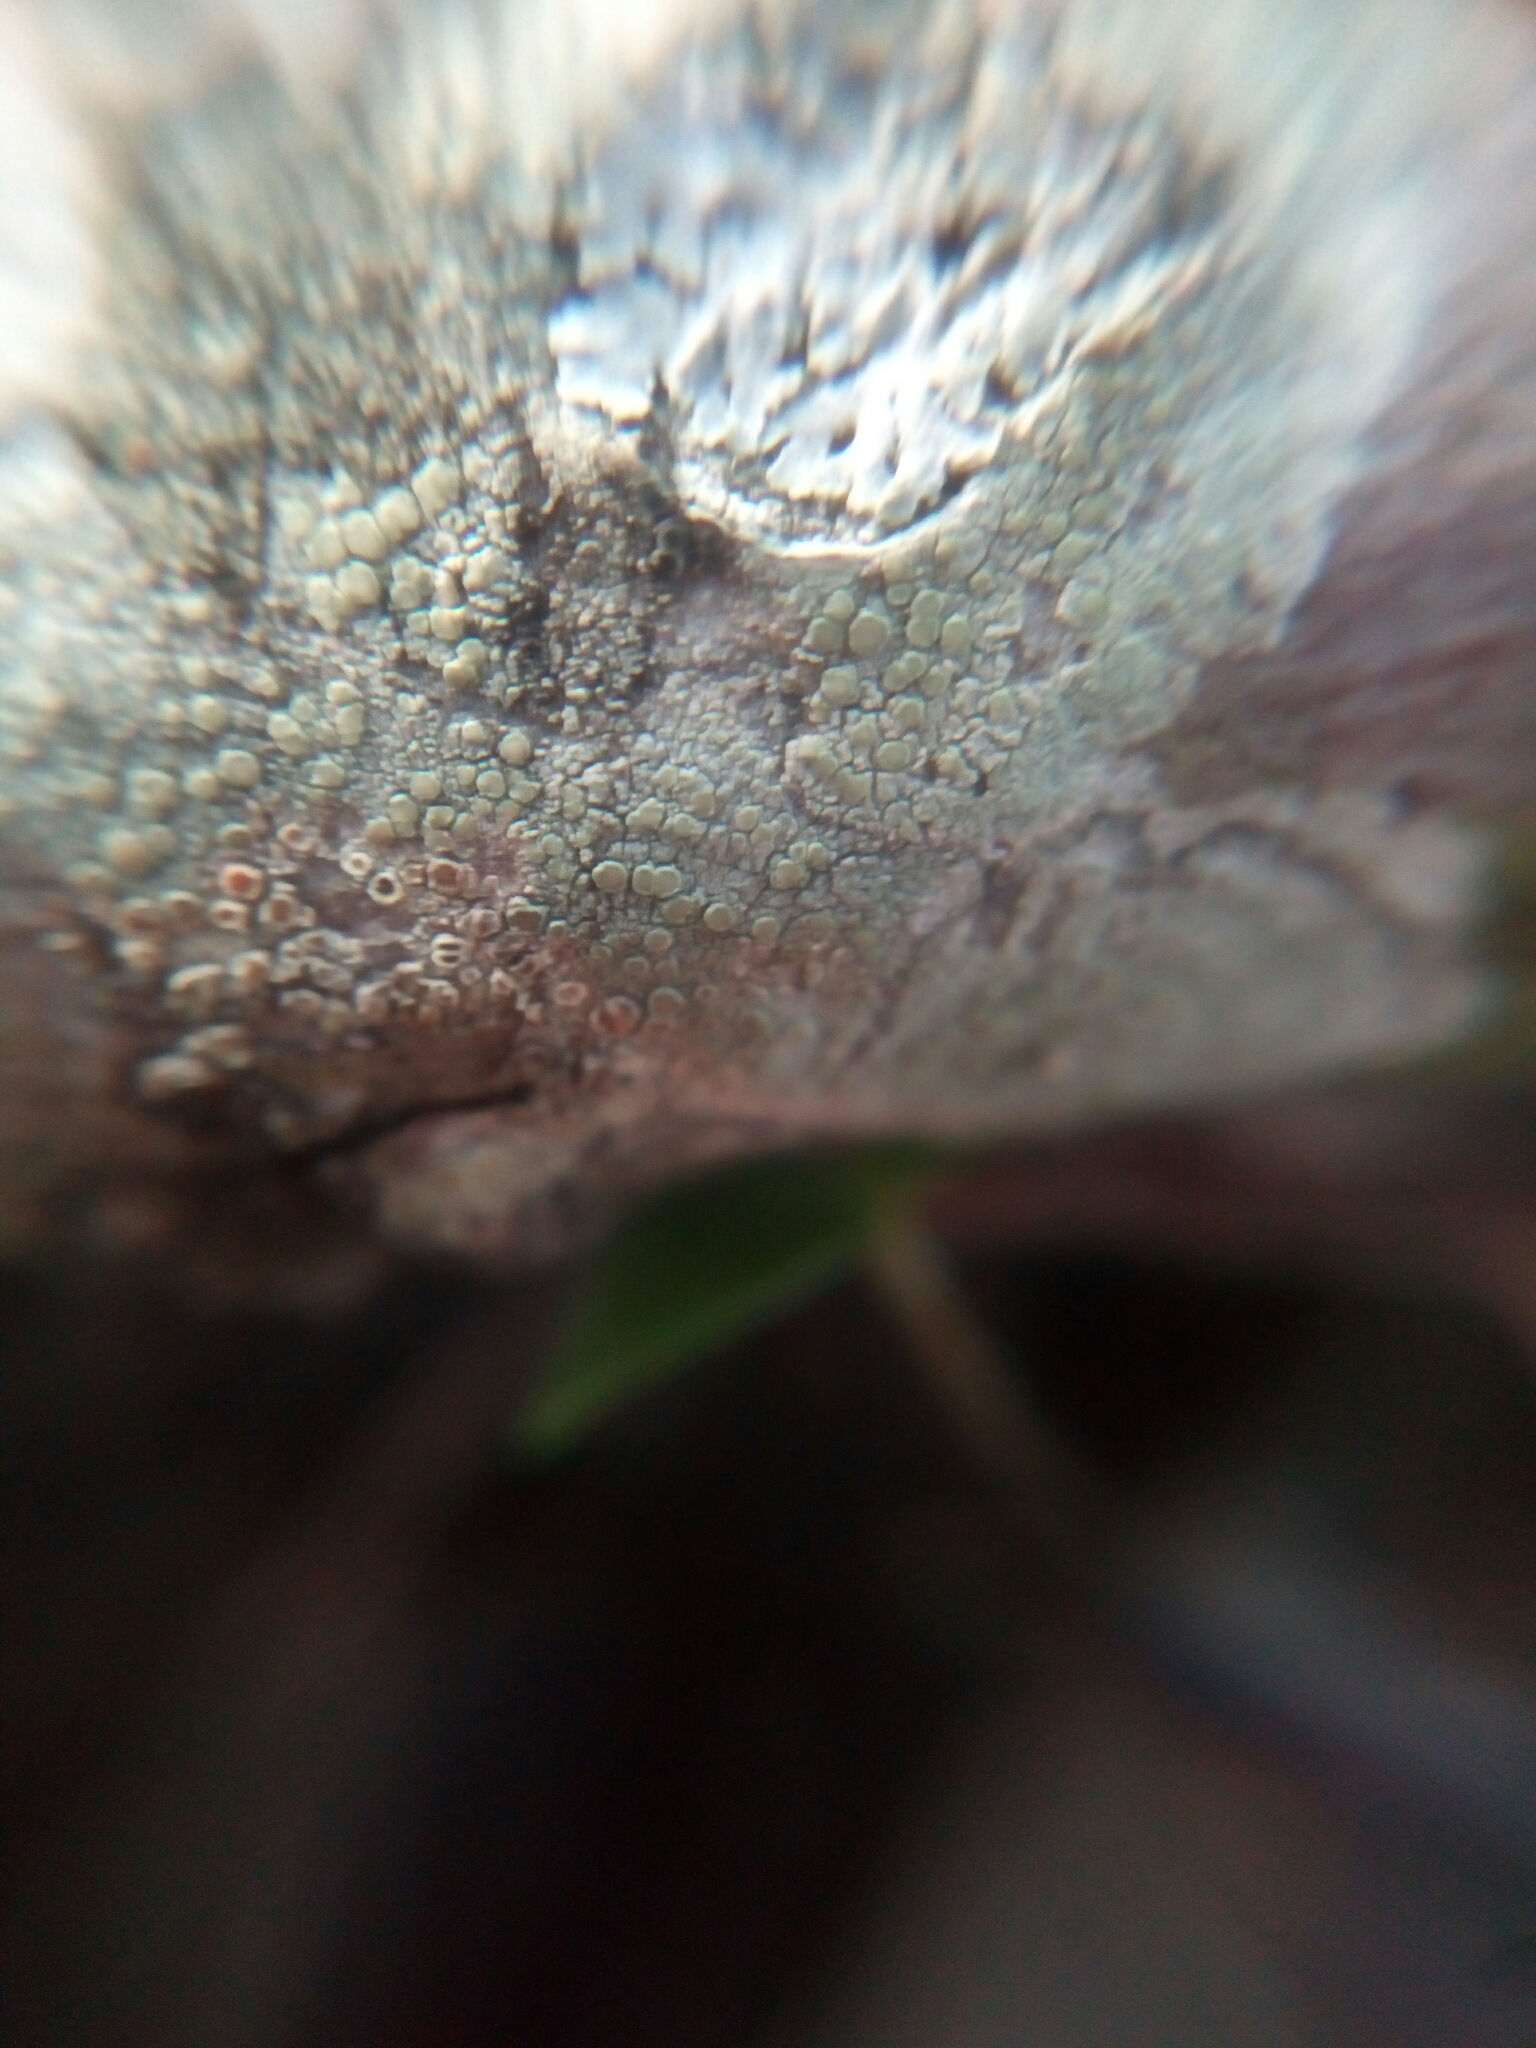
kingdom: Fungi
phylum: Ascomycota
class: Lecanoromycetes
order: Lecanorales
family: Lecanoraceae
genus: Lecanora
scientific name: Lecanora strobilina
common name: Mealy rim-lichen
